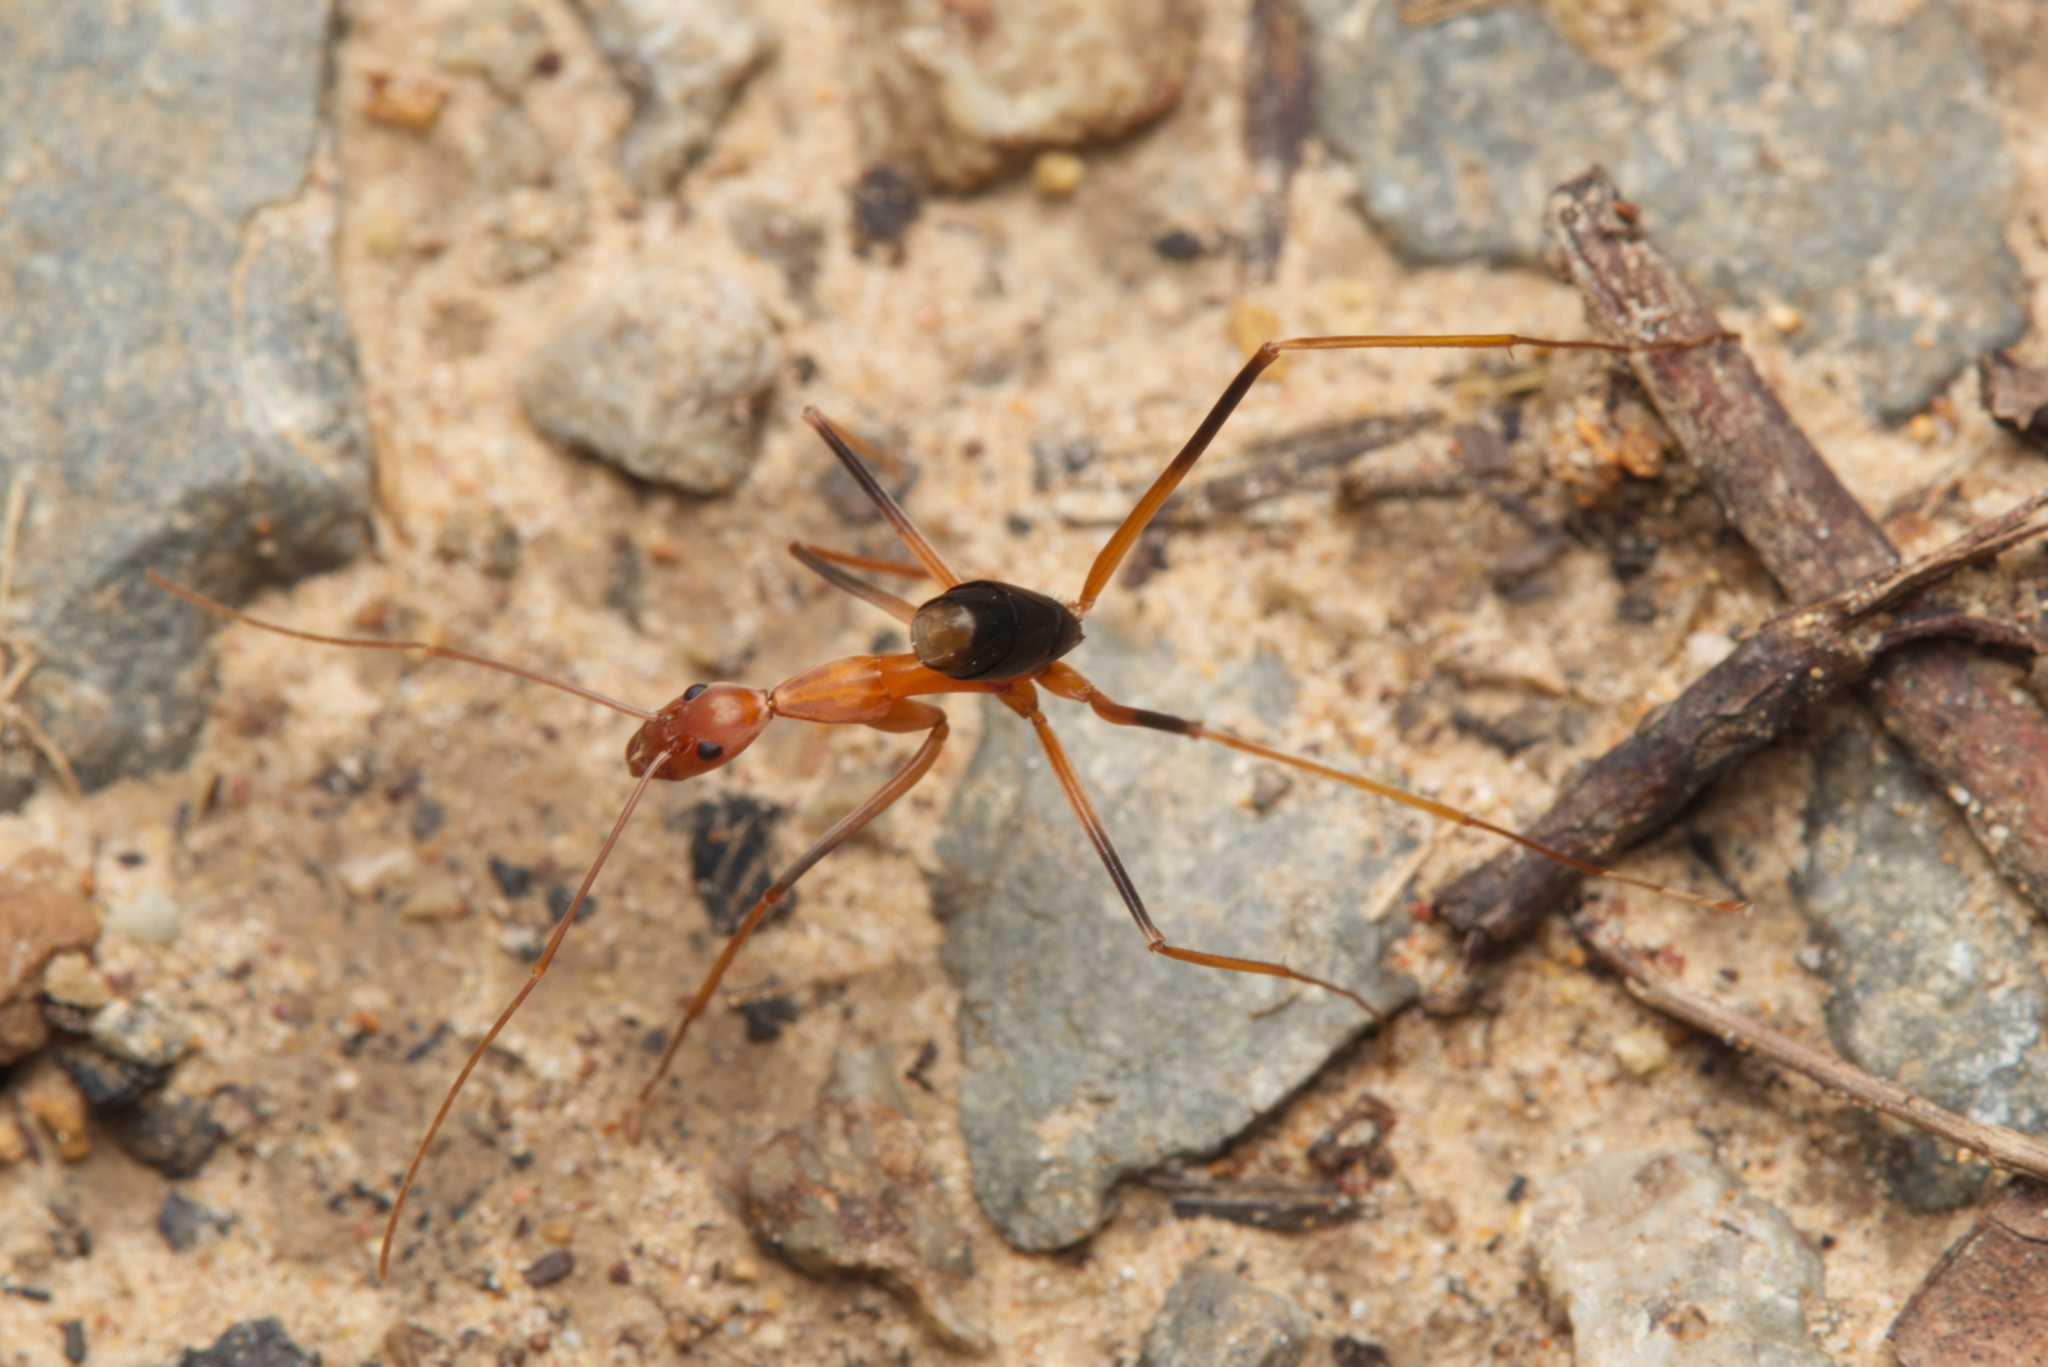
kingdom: Animalia
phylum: Arthropoda
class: Insecta
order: Hymenoptera
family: Formicidae
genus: Leptomyrmex
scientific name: Leptomyrmex rufipes
